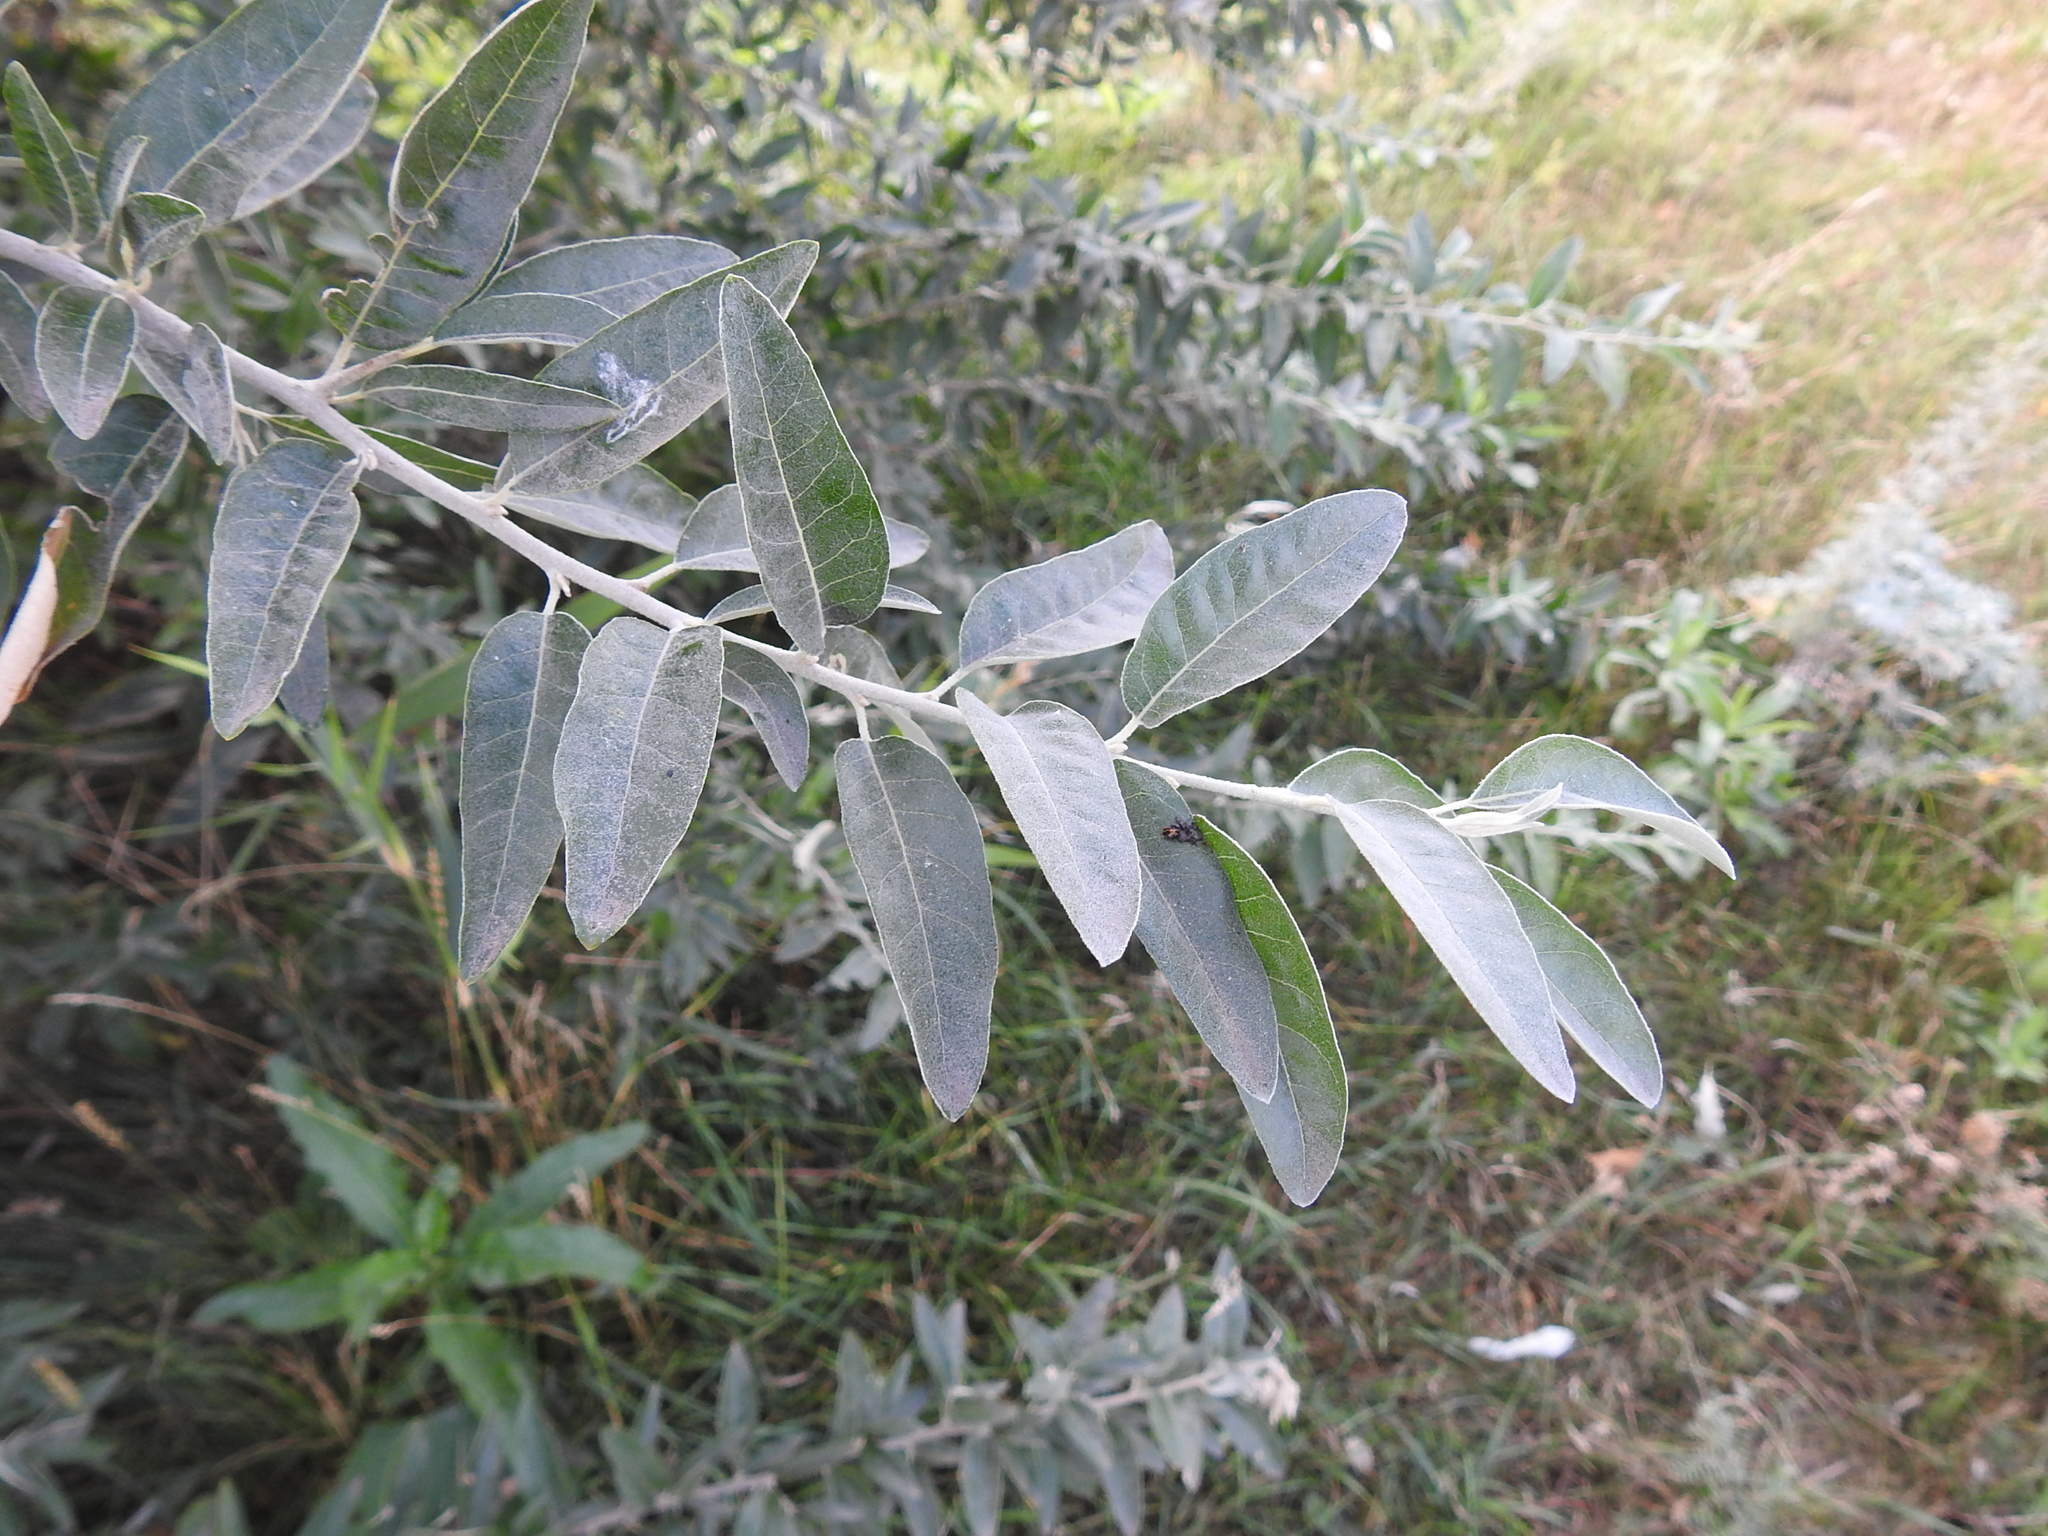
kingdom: Plantae
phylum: Tracheophyta
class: Magnoliopsida
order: Rosales
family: Elaeagnaceae
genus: Elaeagnus
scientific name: Elaeagnus angustifolia
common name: Russian olive
